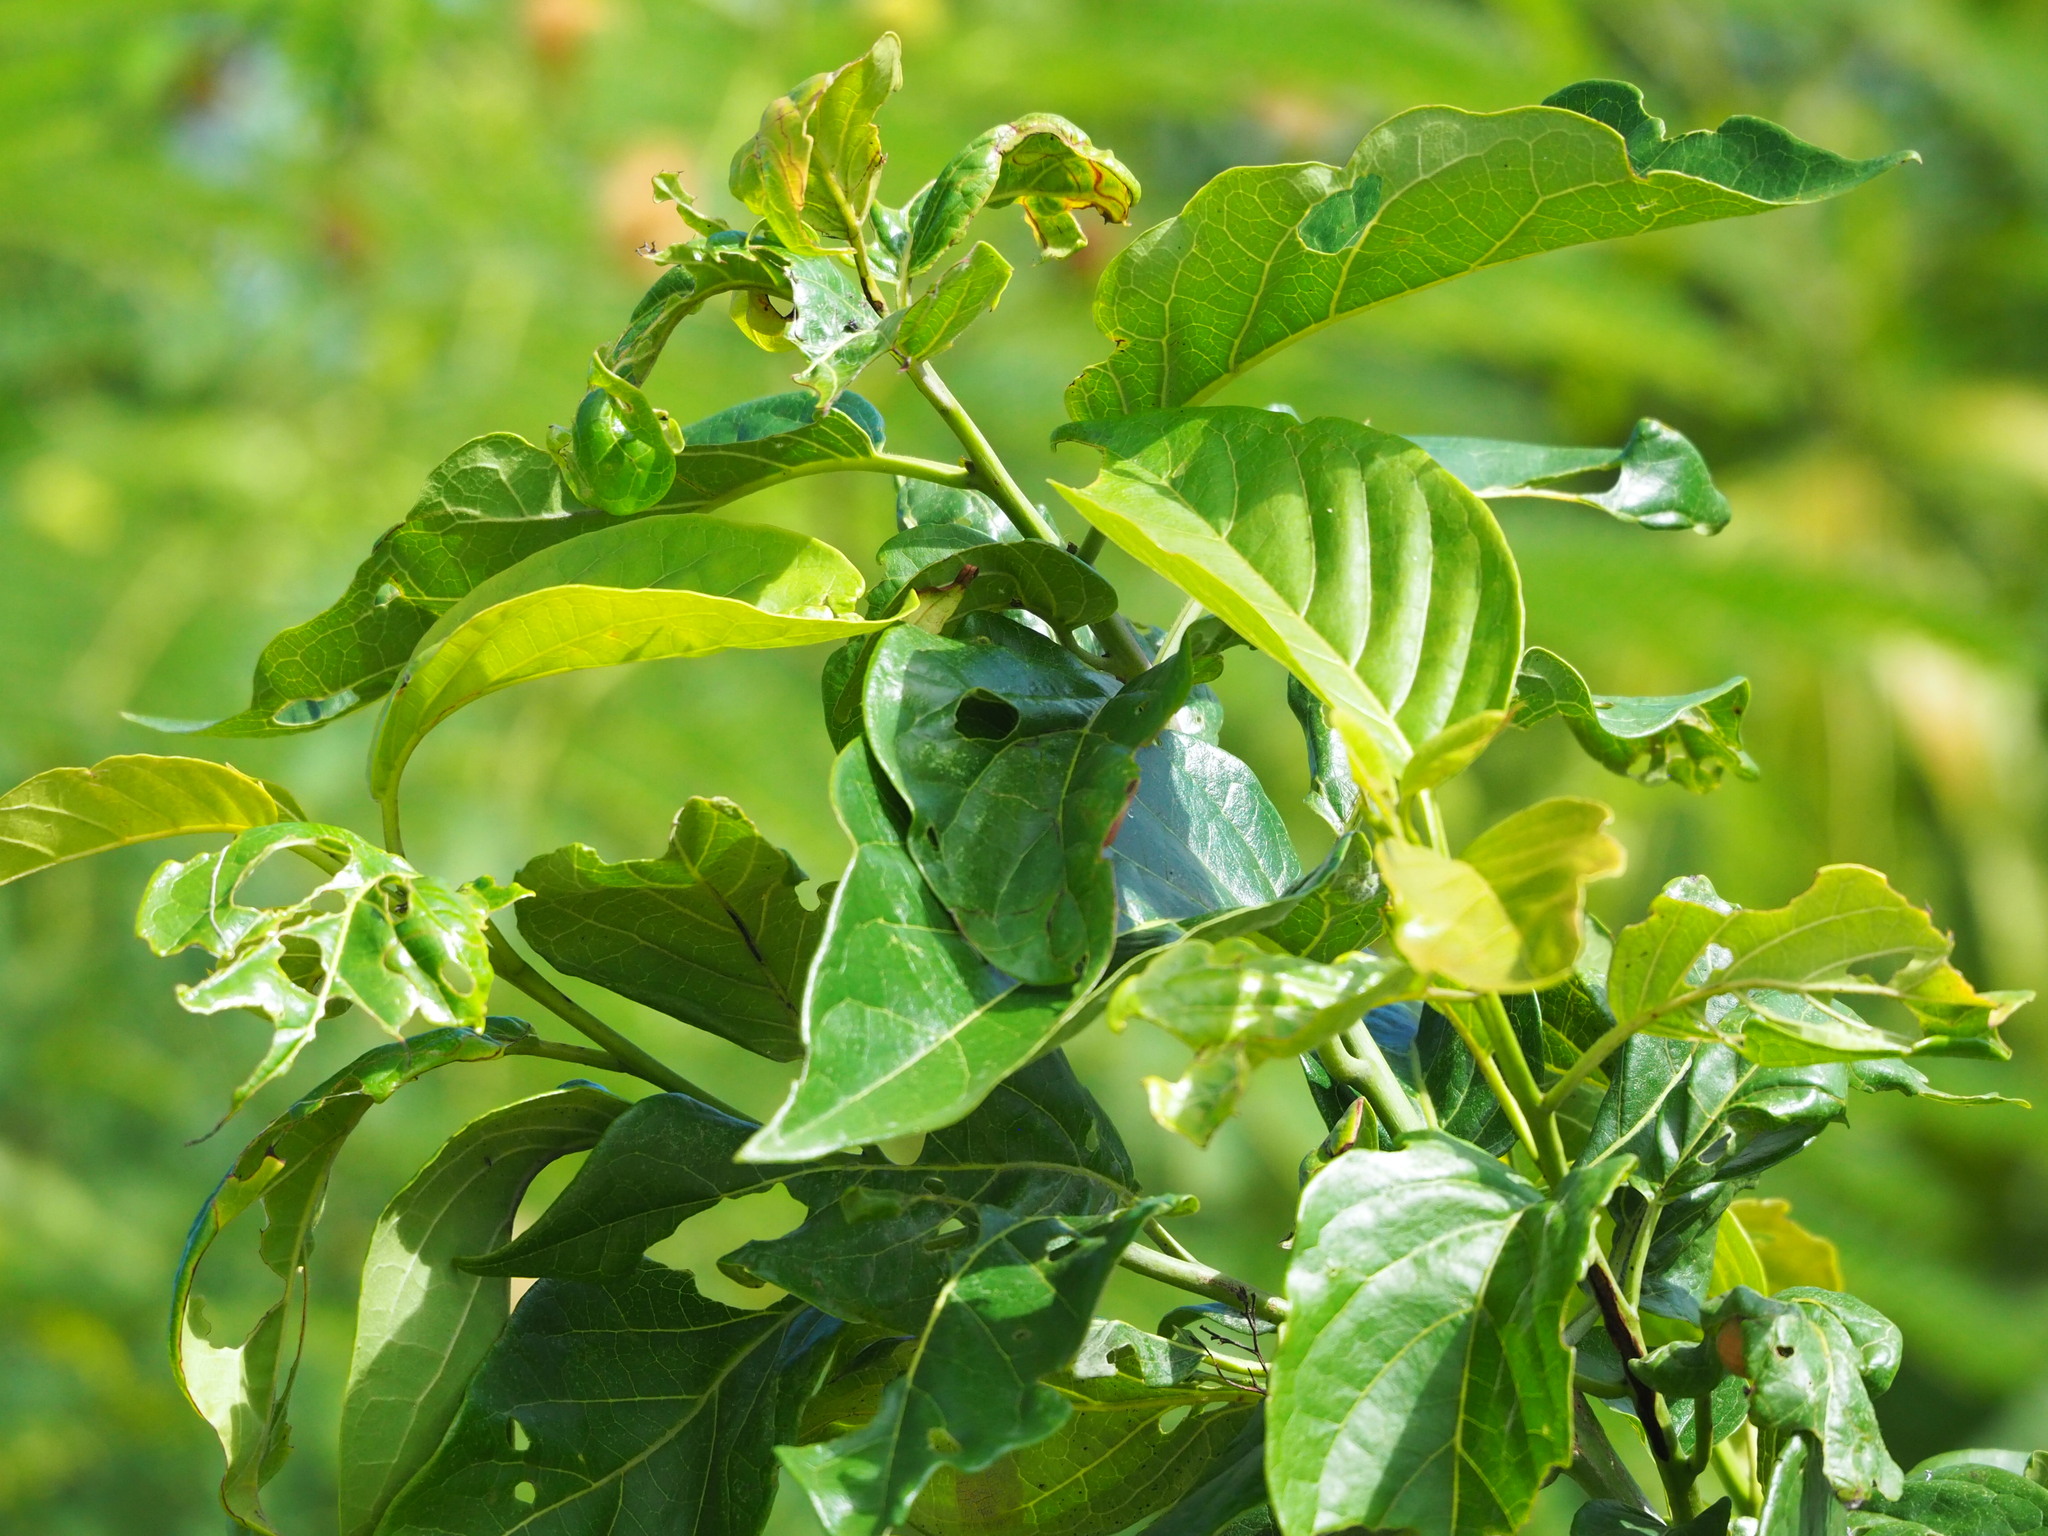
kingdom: Plantae
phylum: Tracheophyta
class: Magnoliopsida
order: Boraginales
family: Ehretiaceae
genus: Ehretia
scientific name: Ehretia resinosa
